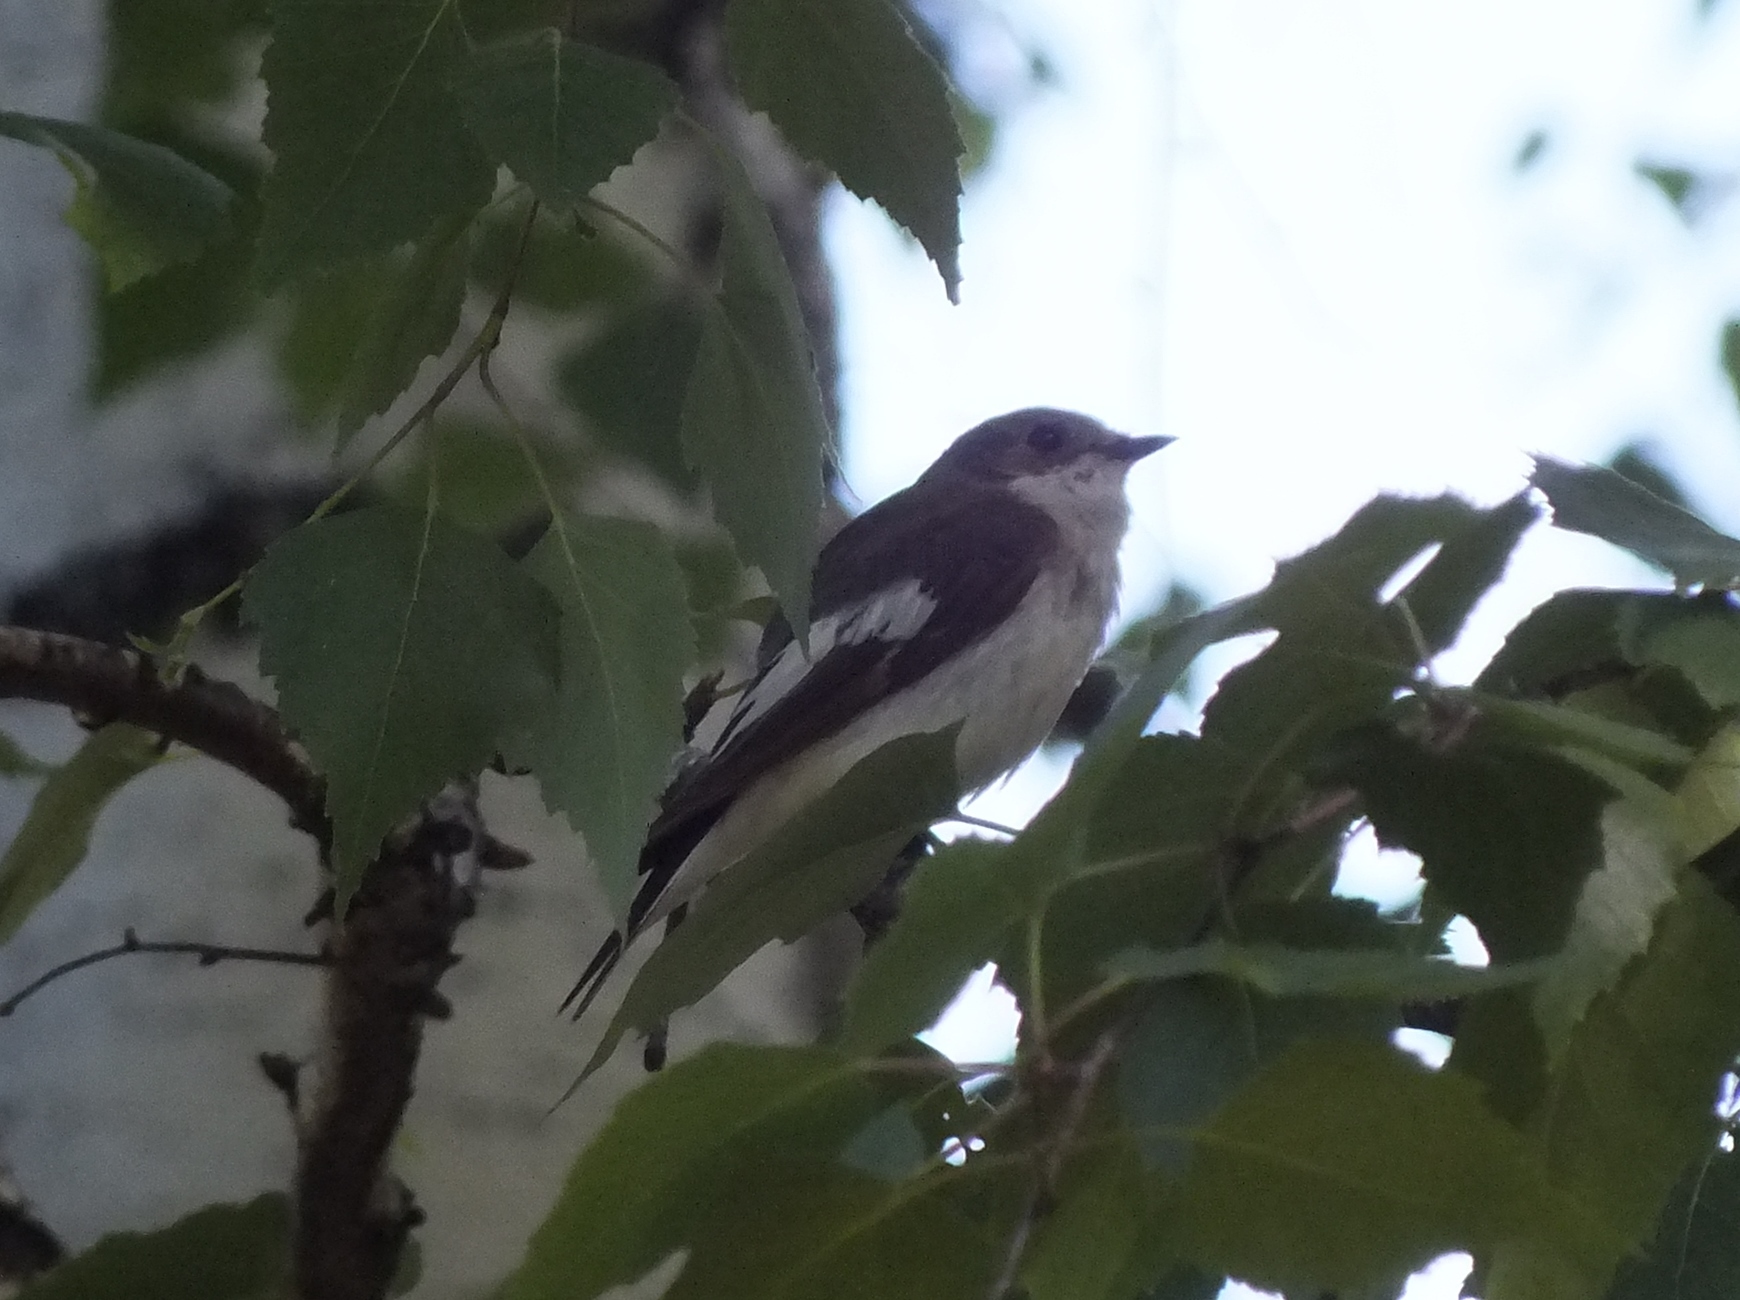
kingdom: Animalia
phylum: Chordata
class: Aves
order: Passeriformes
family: Muscicapidae
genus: Ficedula
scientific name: Ficedula hypoleuca
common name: European pied flycatcher
